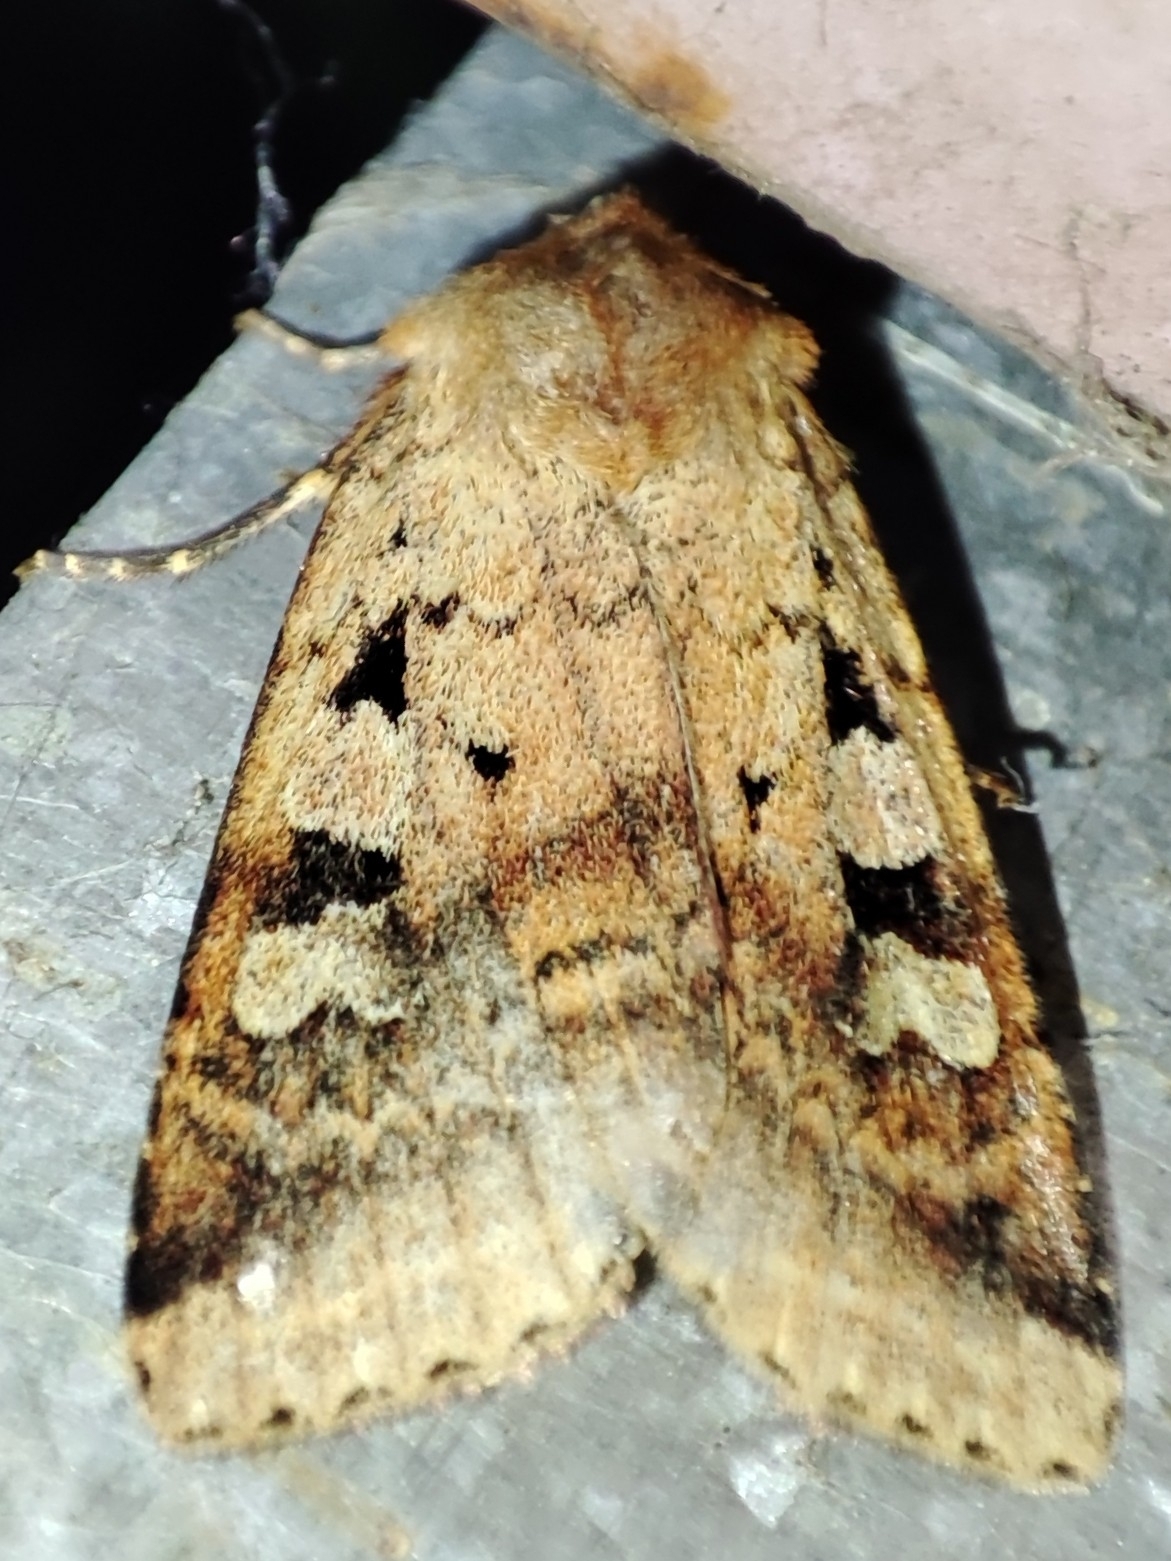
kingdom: Animalia
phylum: Arthropoda
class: Insecta
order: Lepidoptera
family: Noctuidae
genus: Diarsia
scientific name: Diarsia mendica
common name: Ingrailed clay
